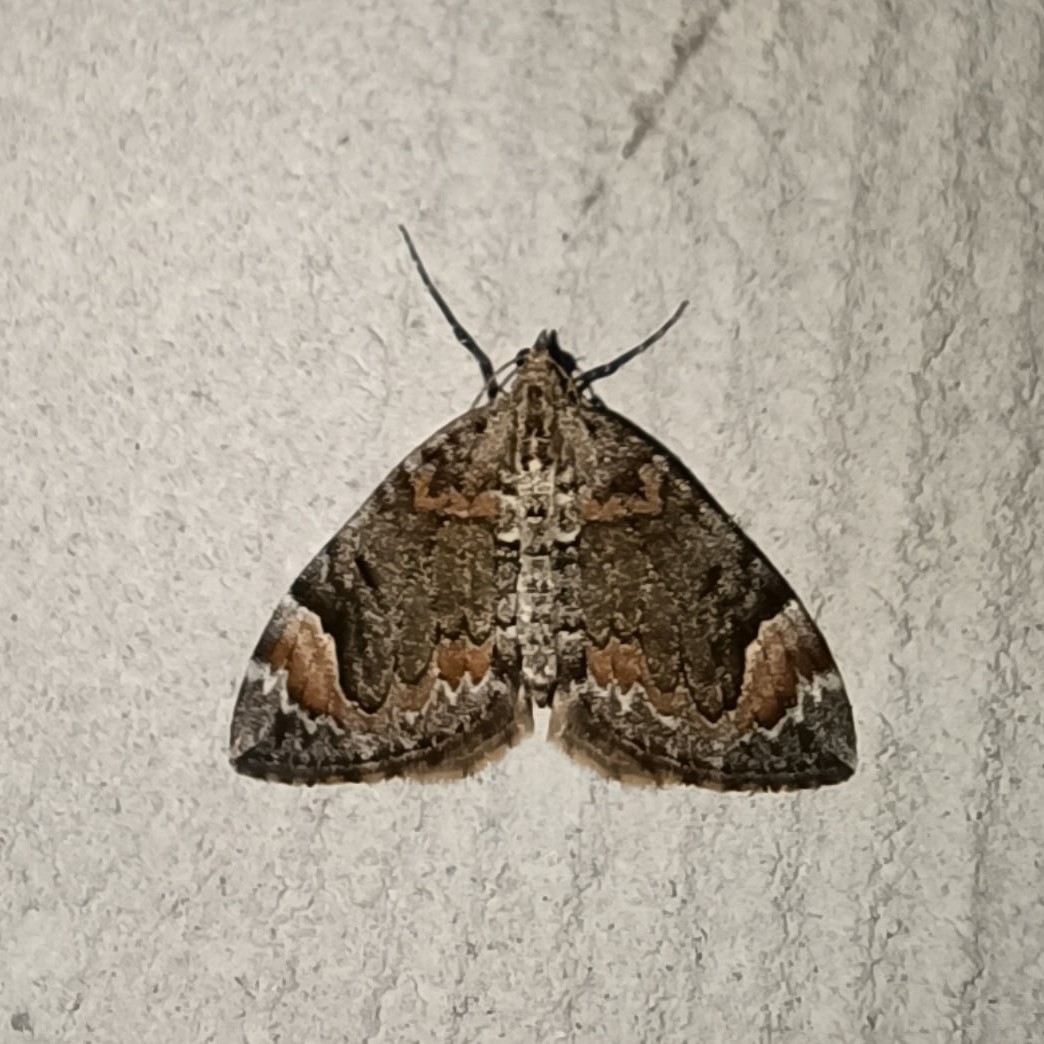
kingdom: Animalia
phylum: Arthropoda
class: Insecta
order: Lepidoptera
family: Geometridae
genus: Dysstroma
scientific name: Dysstroma citrata
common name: Dark marbled carpet
